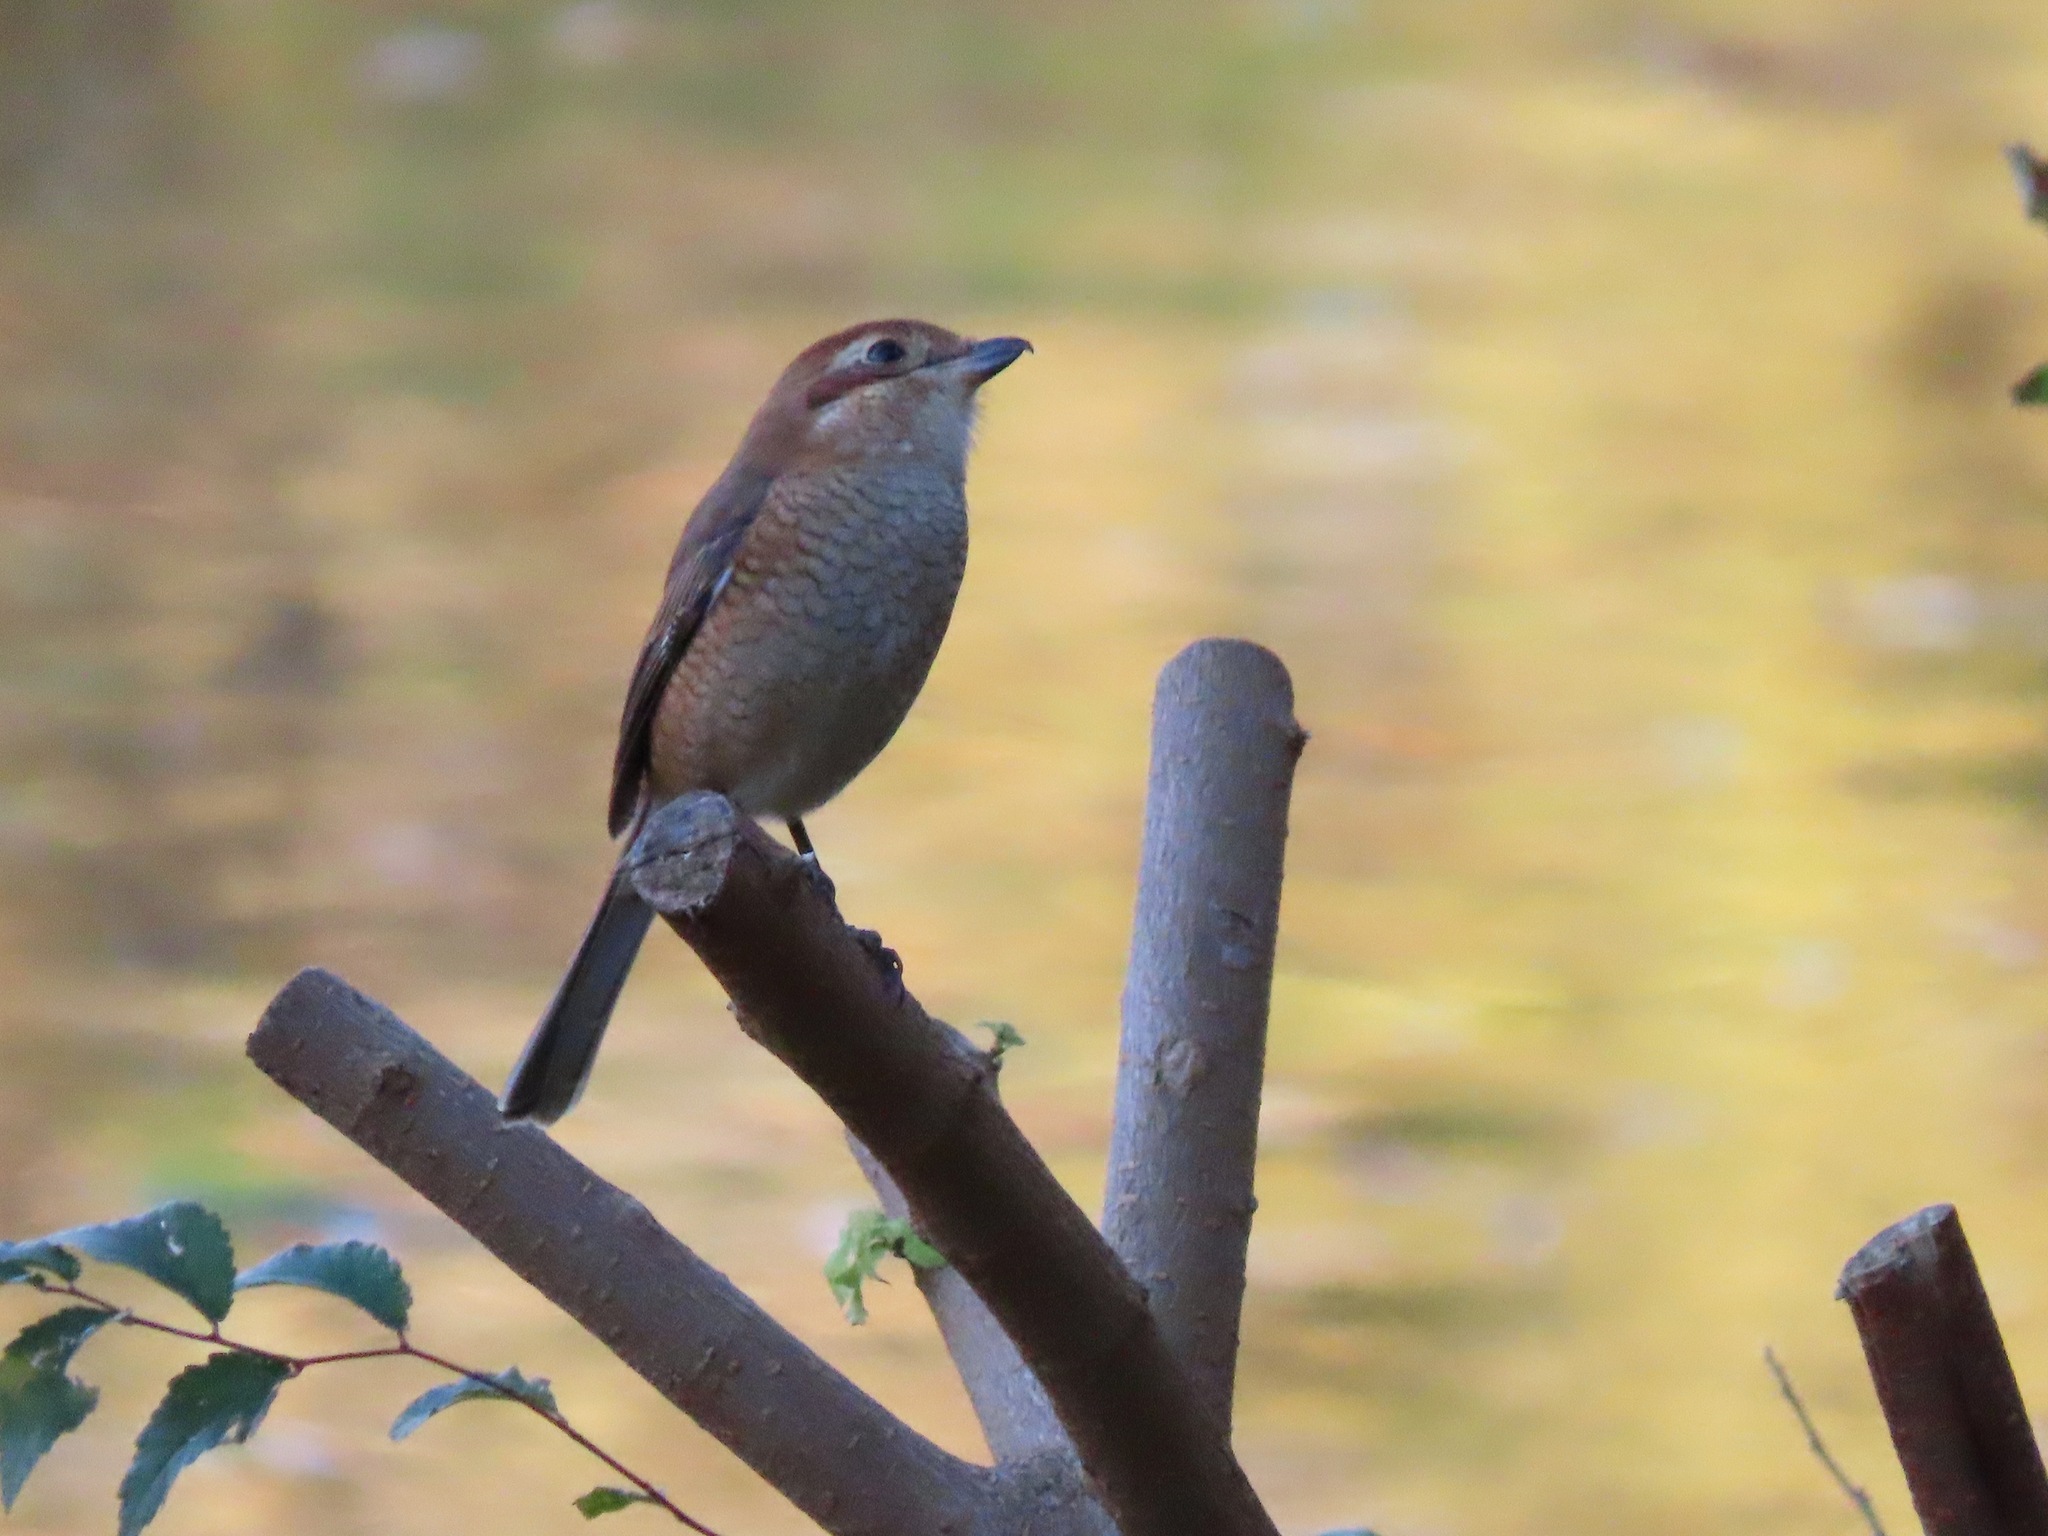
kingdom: Animalia
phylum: Chordata
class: Aves
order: Passeriformes
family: Laniidae
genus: Lanius
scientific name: Lanius bucephalus
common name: Bull-headed shrike
